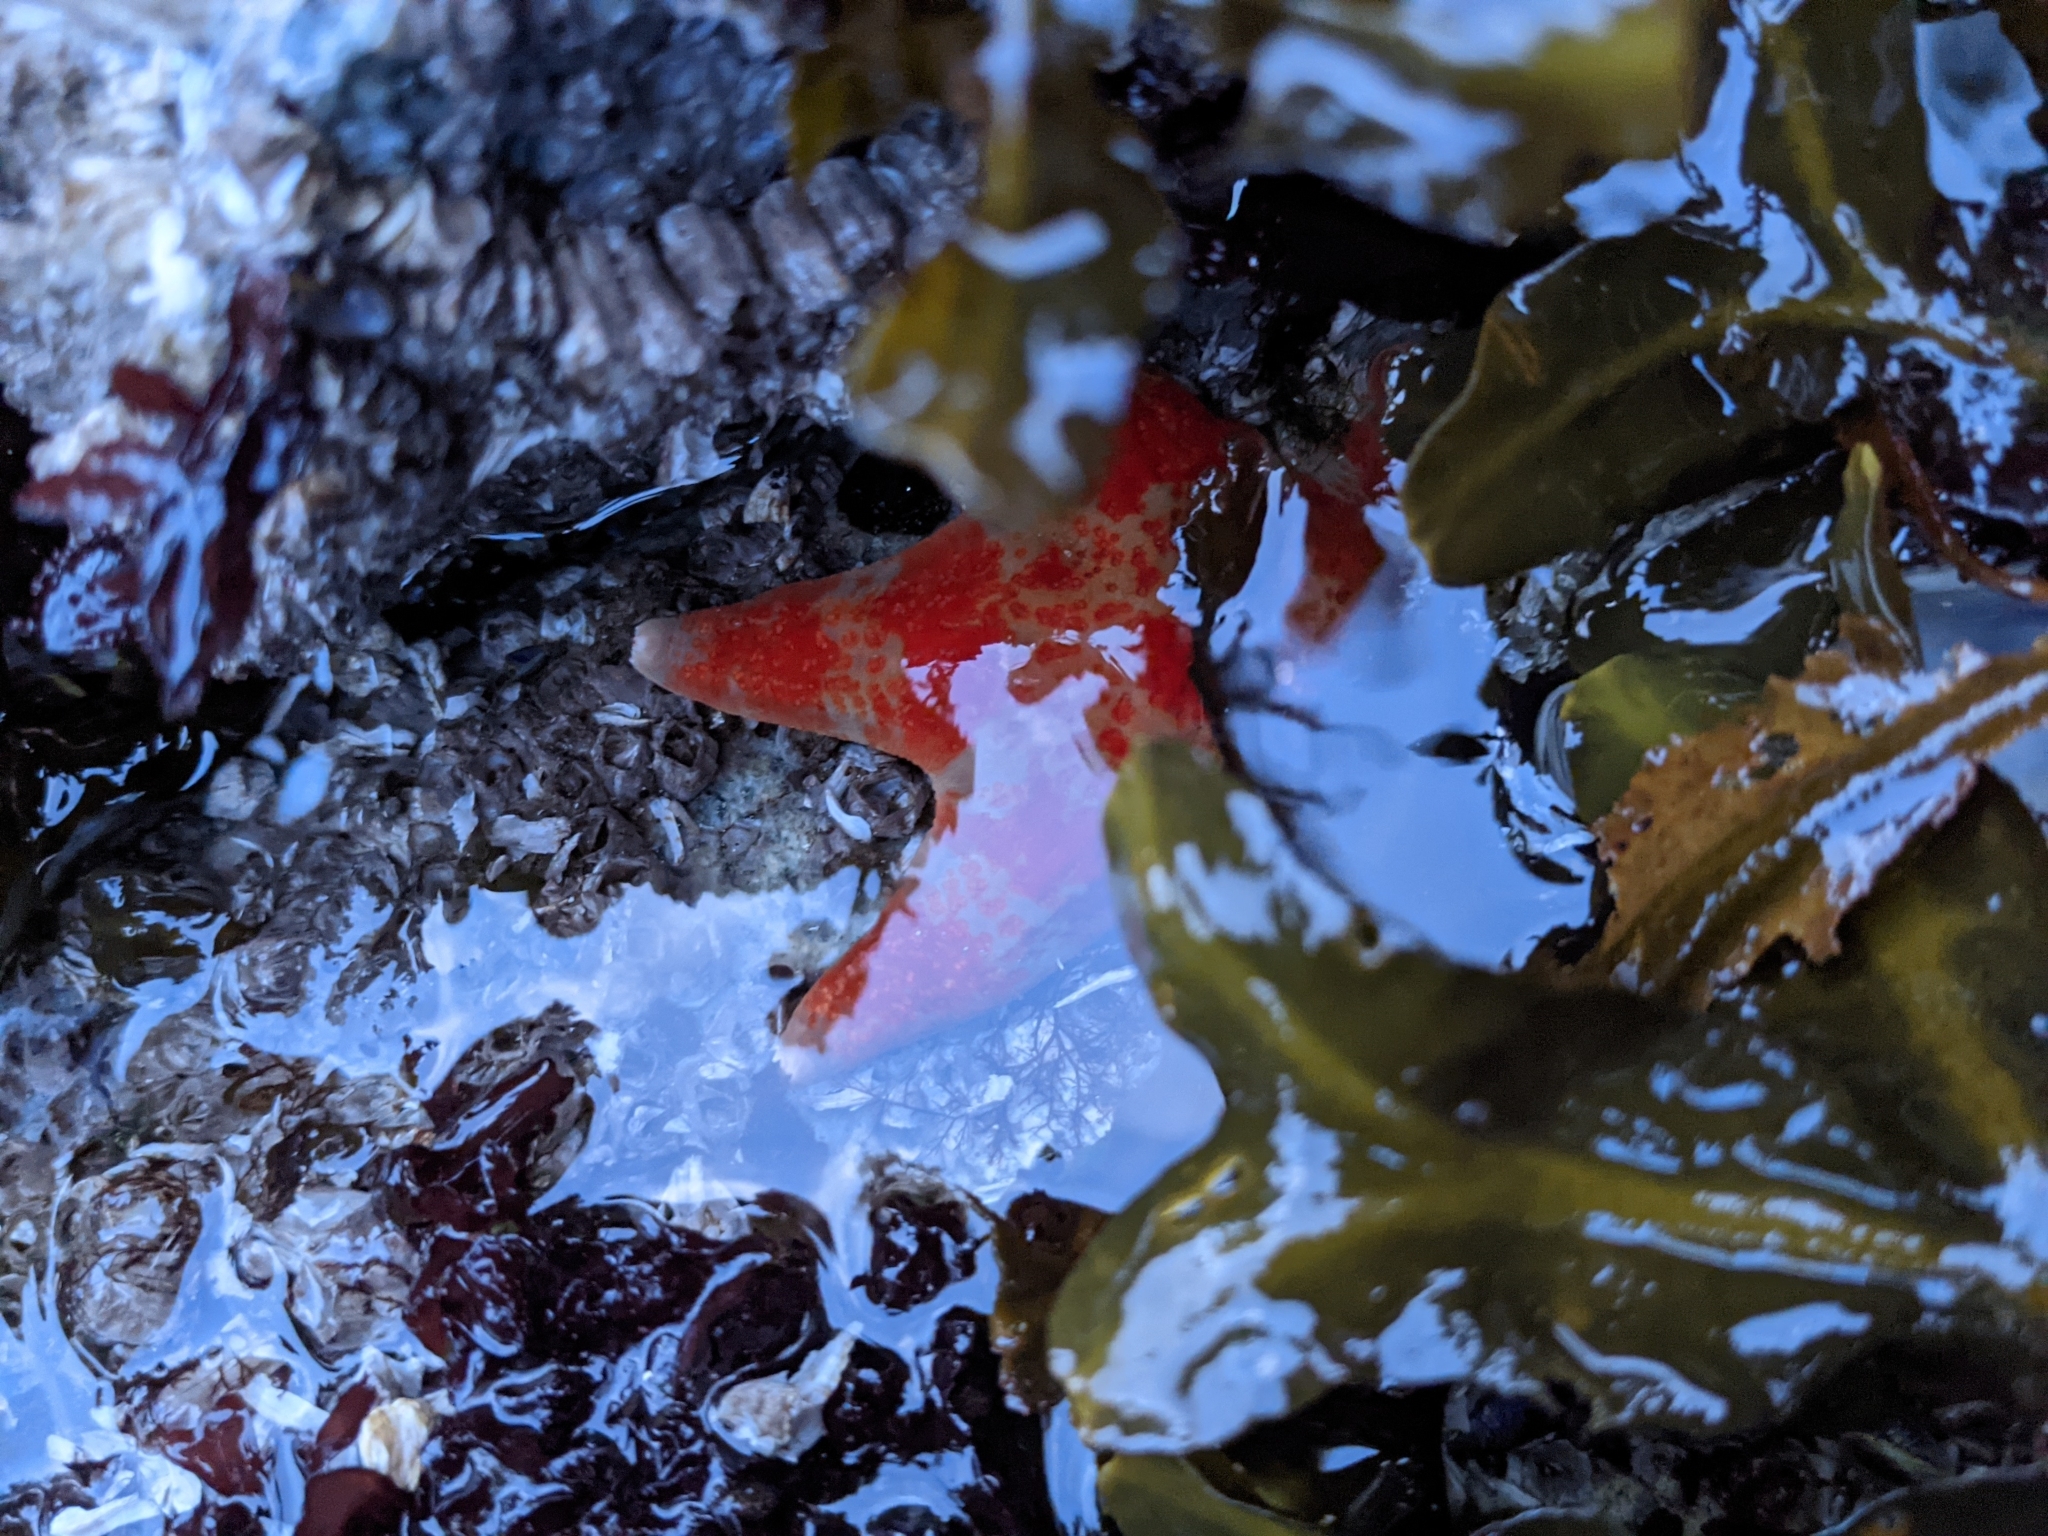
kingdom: Animalia
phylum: Echinodermata
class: Asteroidea
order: Valvatida
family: Asteropseidae
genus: Dermasterias
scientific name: Dermasterias imbricata
